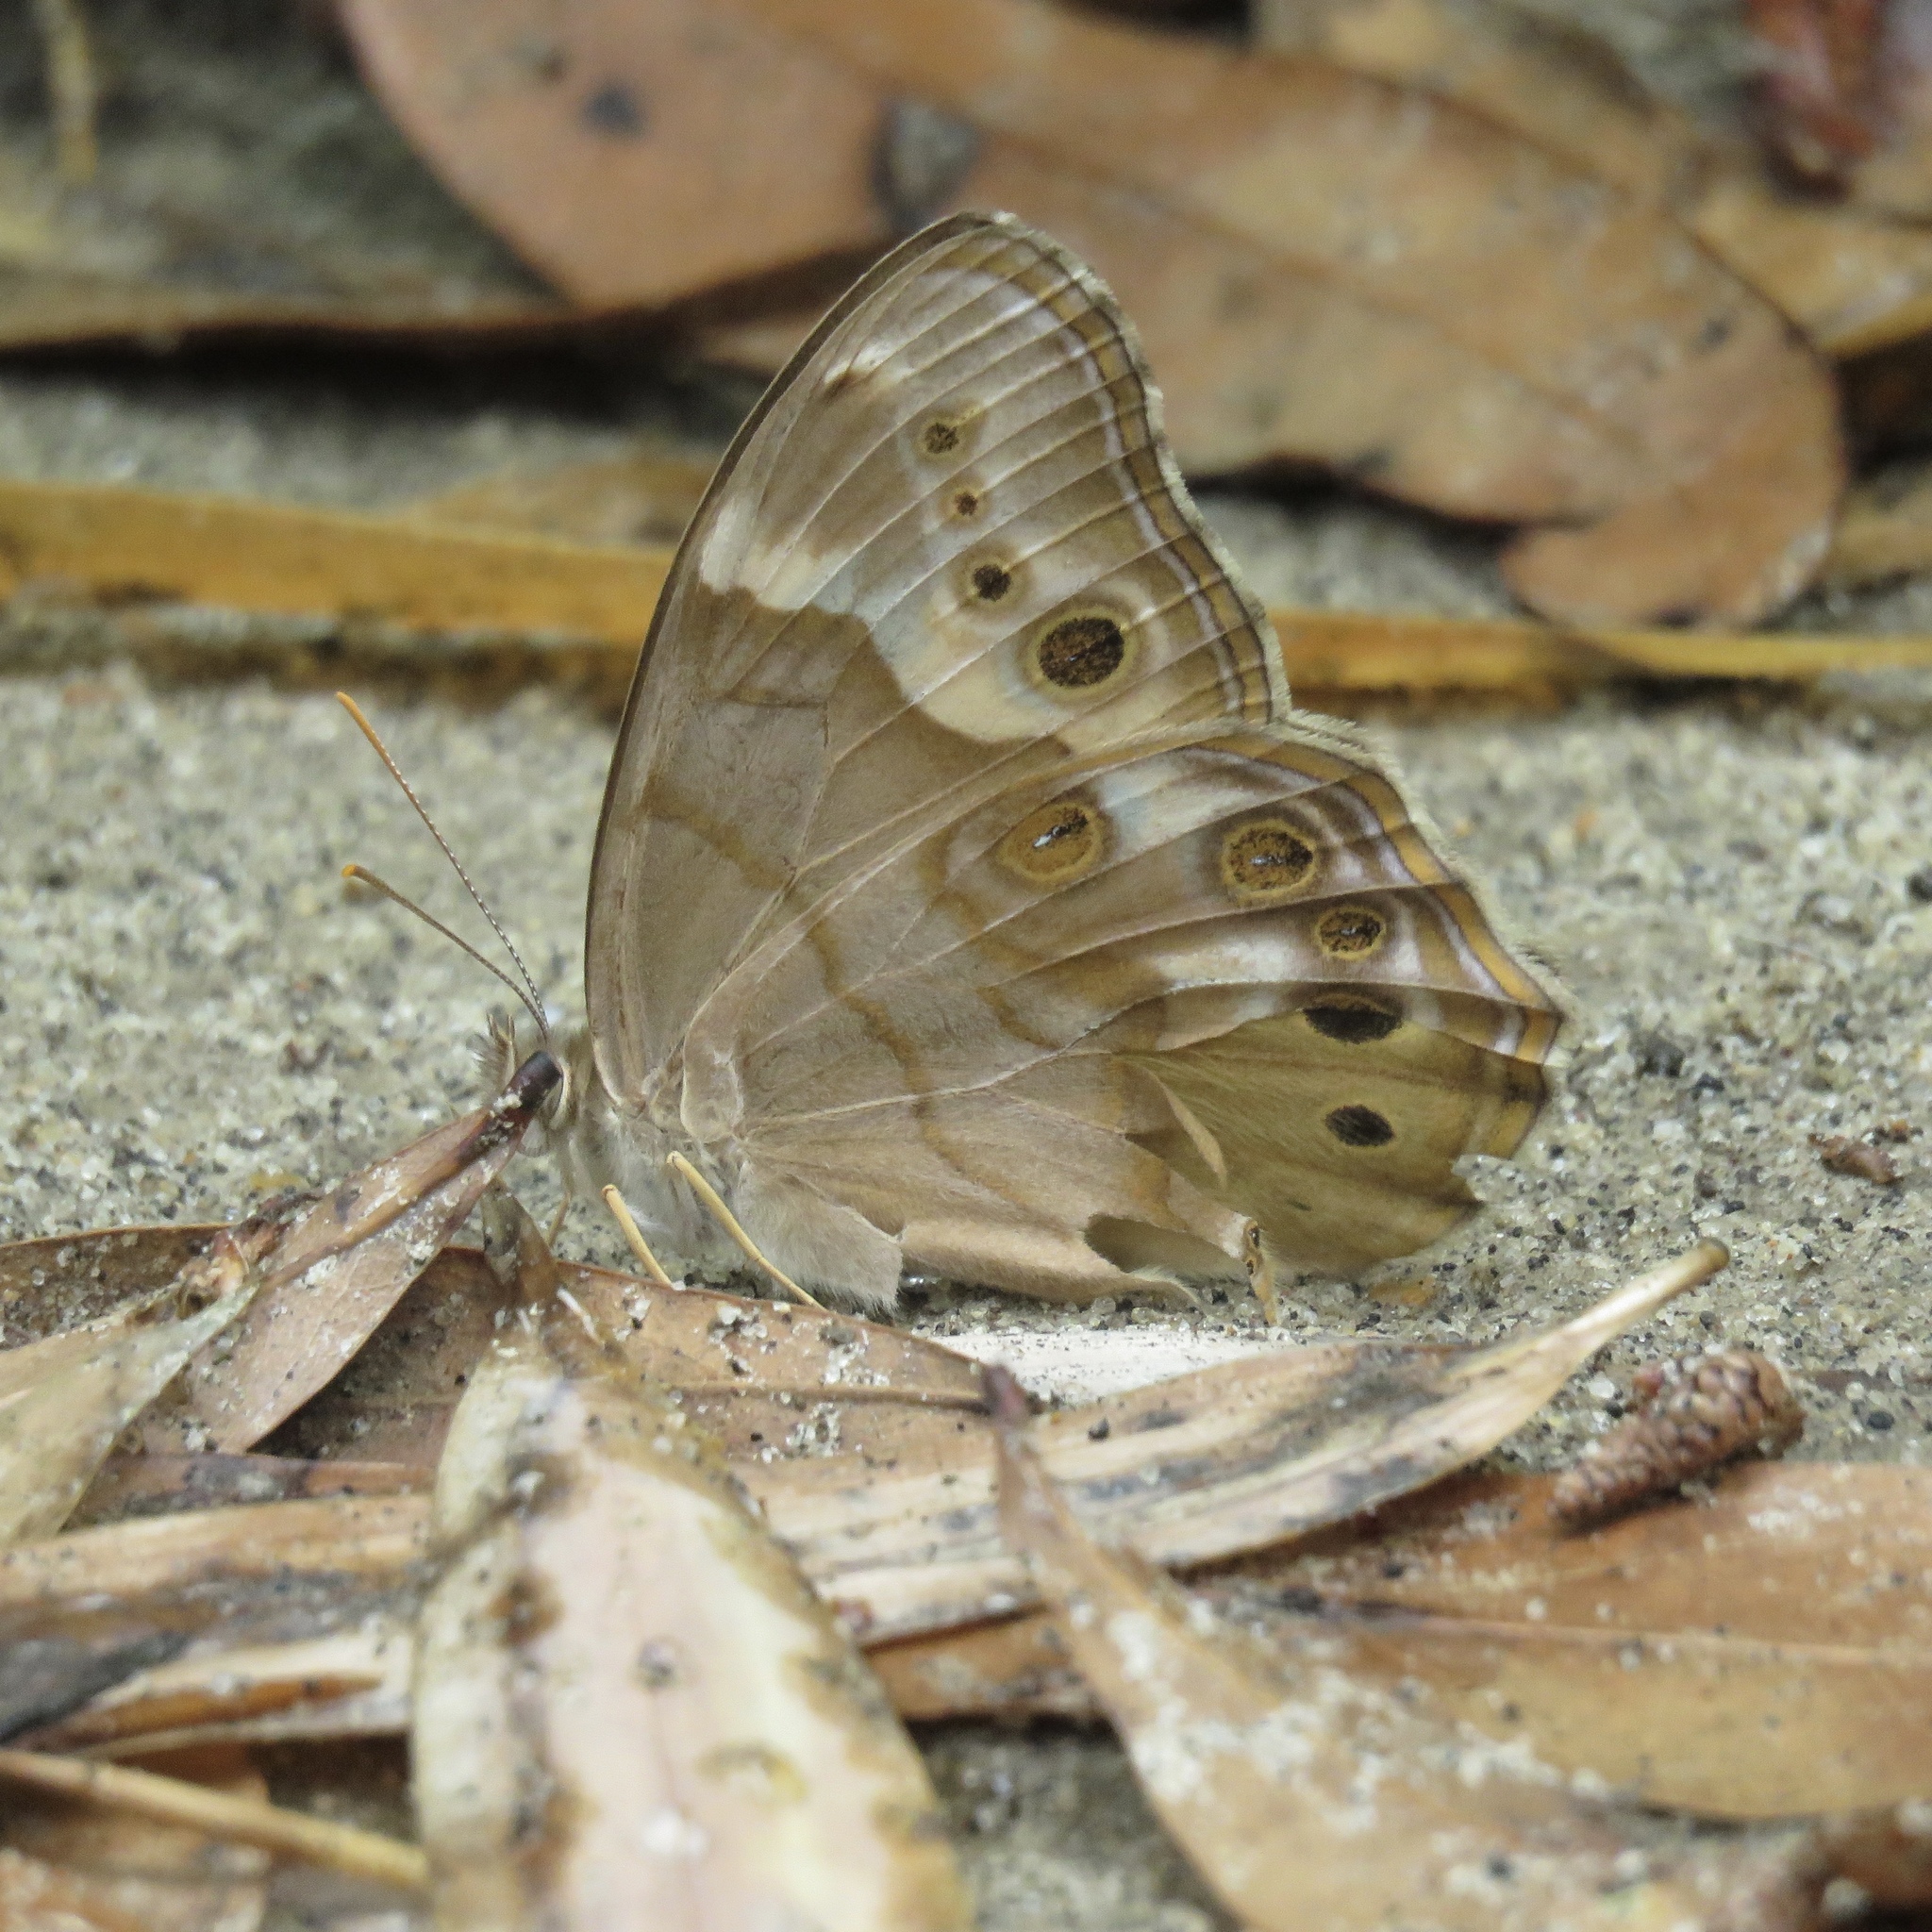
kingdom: Animalia
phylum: Arthropoda
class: Insecta
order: Lepidoptera
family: Nymphalidae
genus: Enodia
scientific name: Enodia portlandia
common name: Southern pearly-eye
